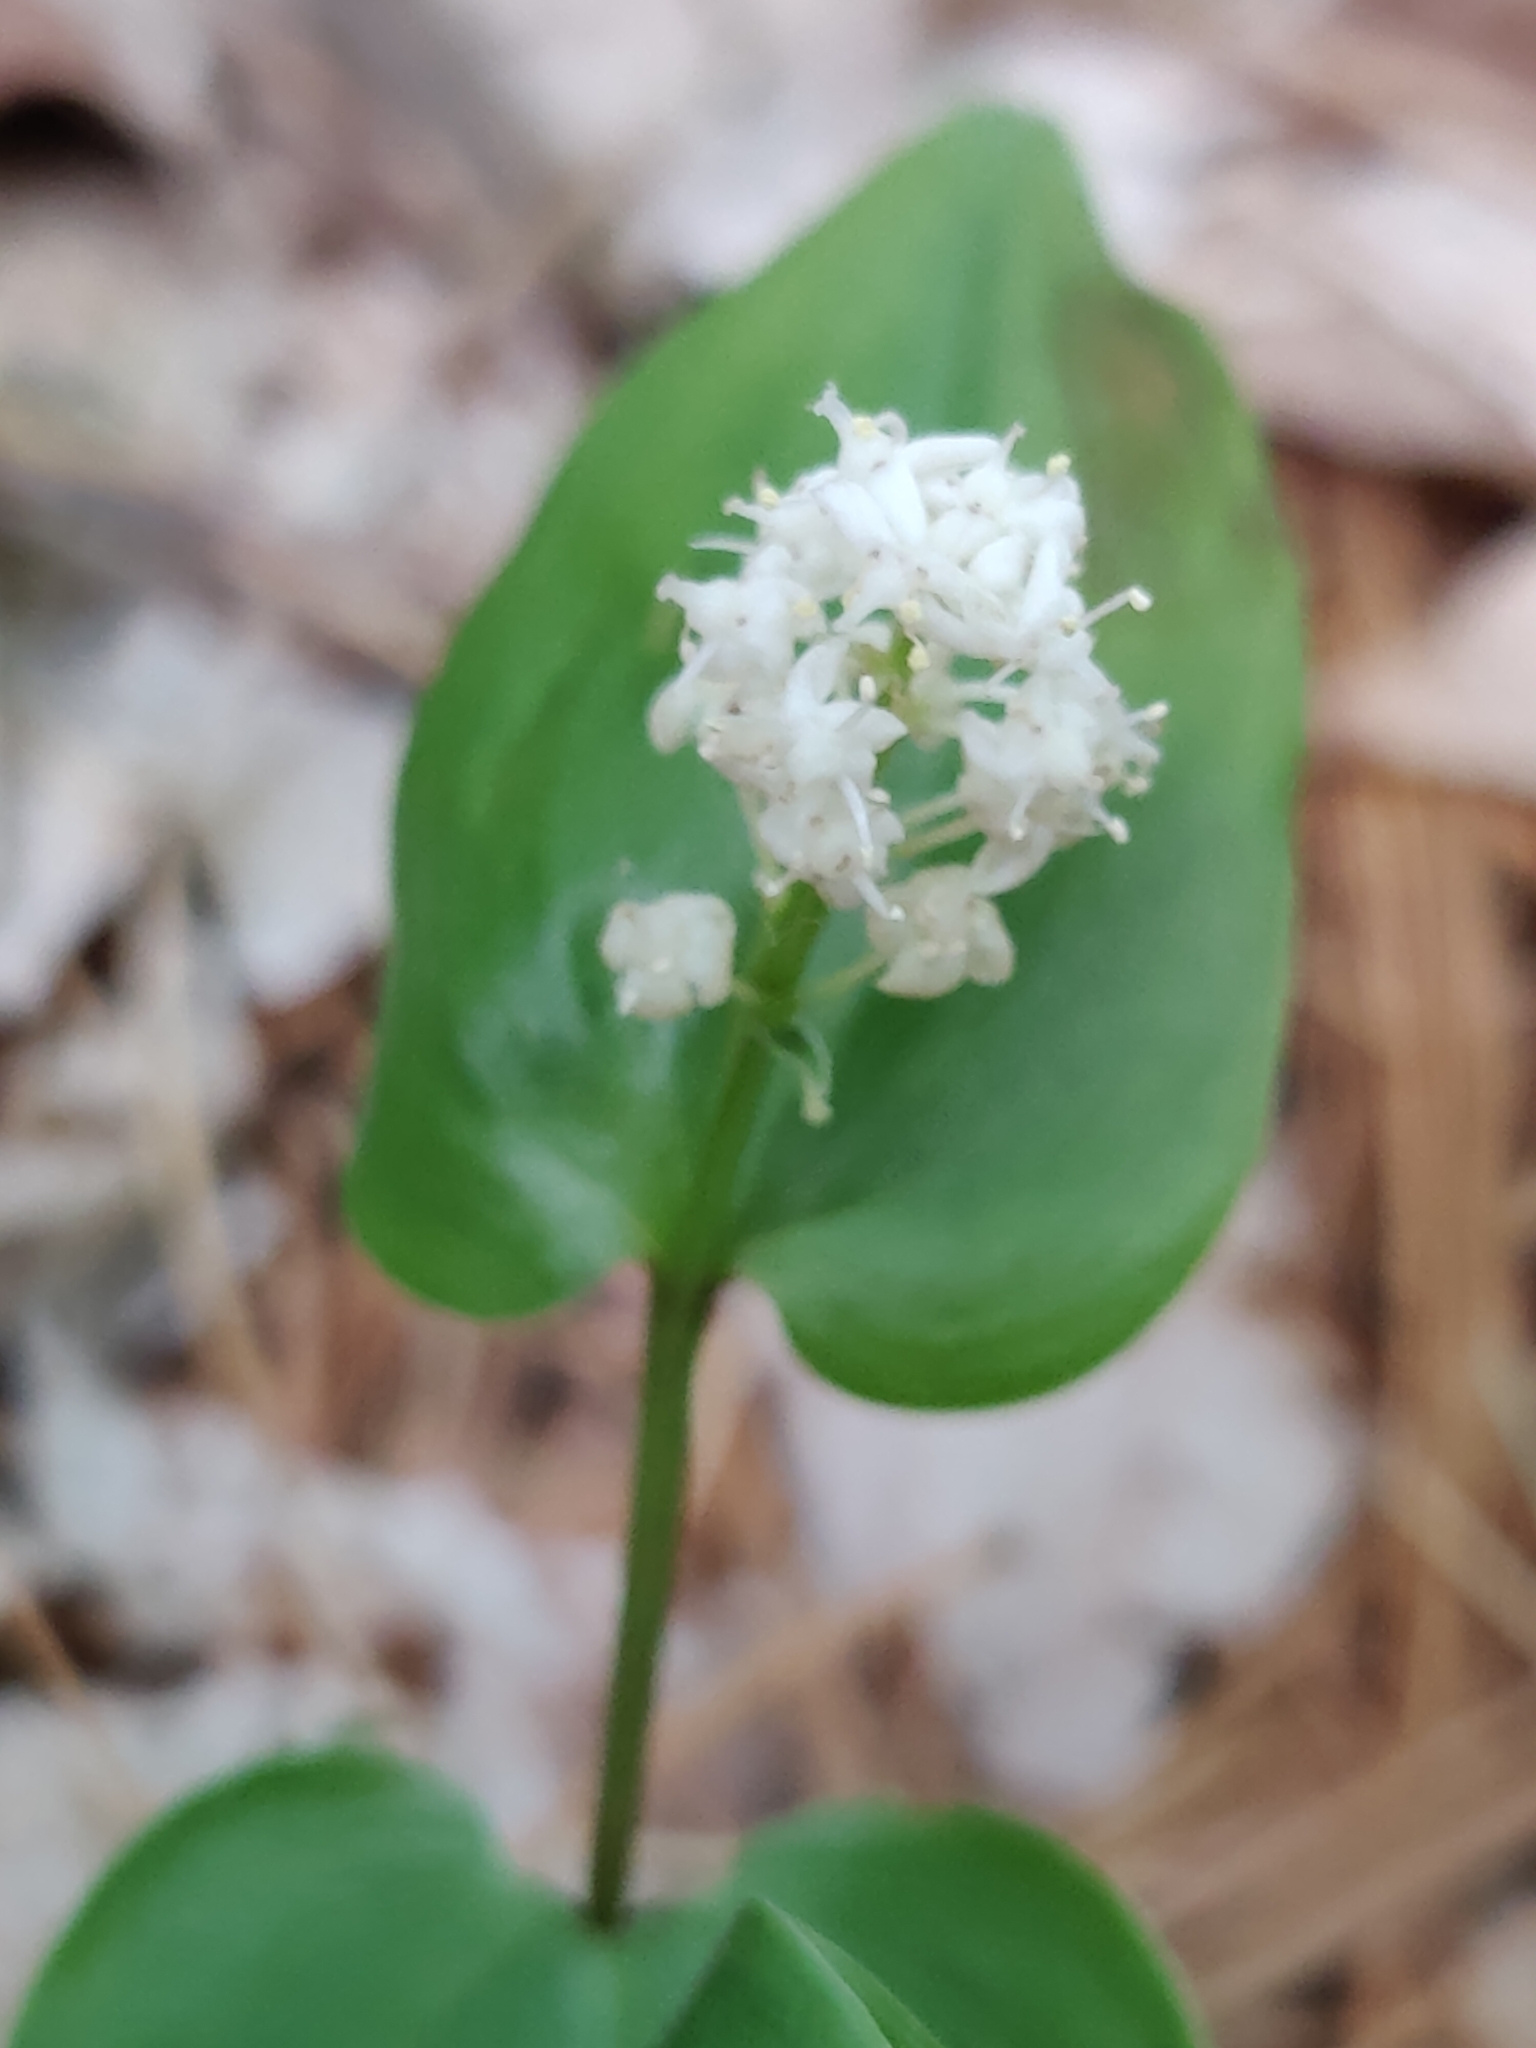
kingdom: Plantae
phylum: Tracheophyta
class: Liliopsida
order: Asparagales
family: Asparagaceae
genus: Maianthemum
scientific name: Maianthemum canadense
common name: False lily-of-the-valley
